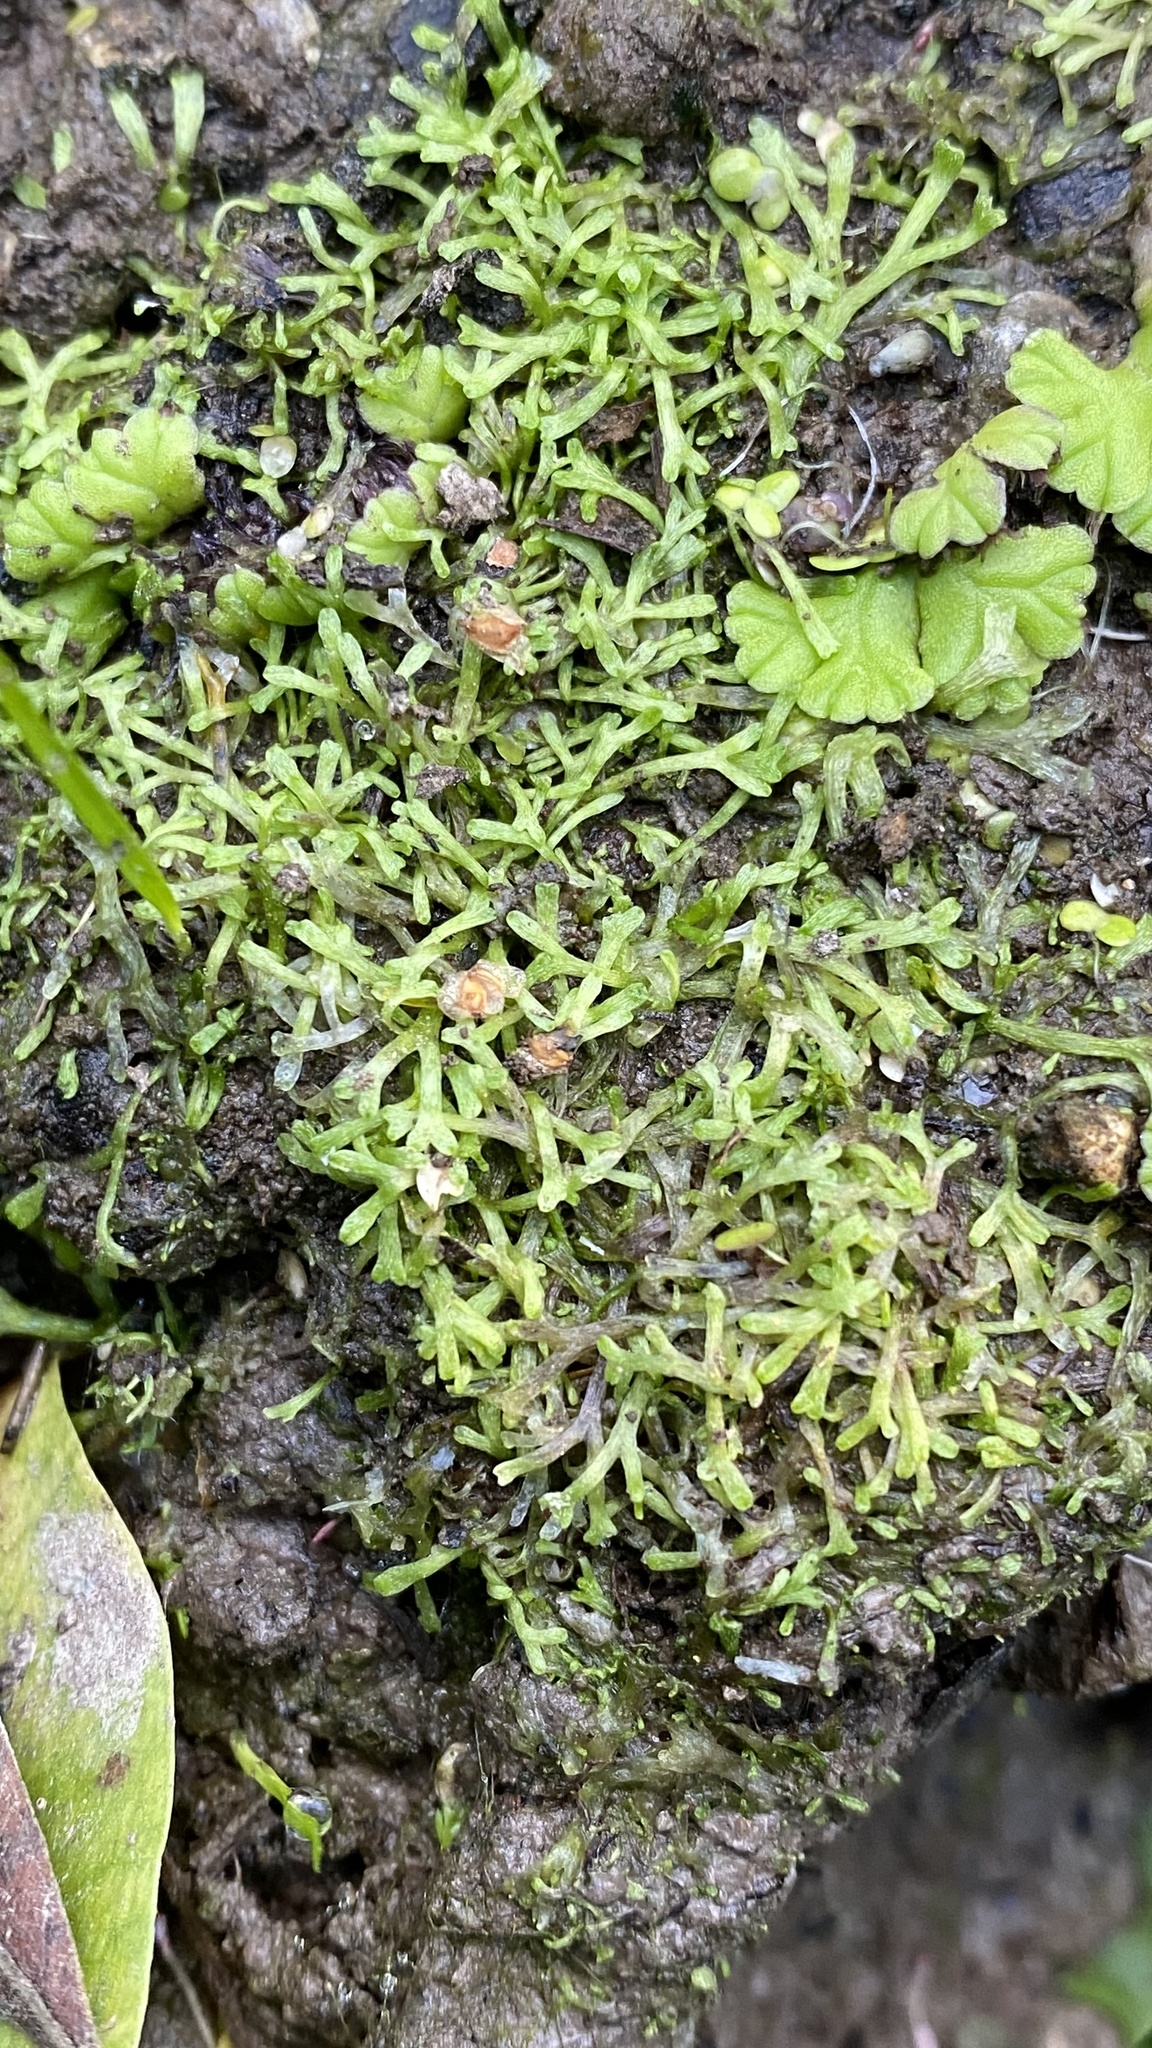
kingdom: Plantae
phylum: Marchantiophyta
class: Marchantiopsida
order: Marchantiales
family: Ricciaceae
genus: Riccia
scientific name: Riccia fluitans
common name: Floating crystalwort
